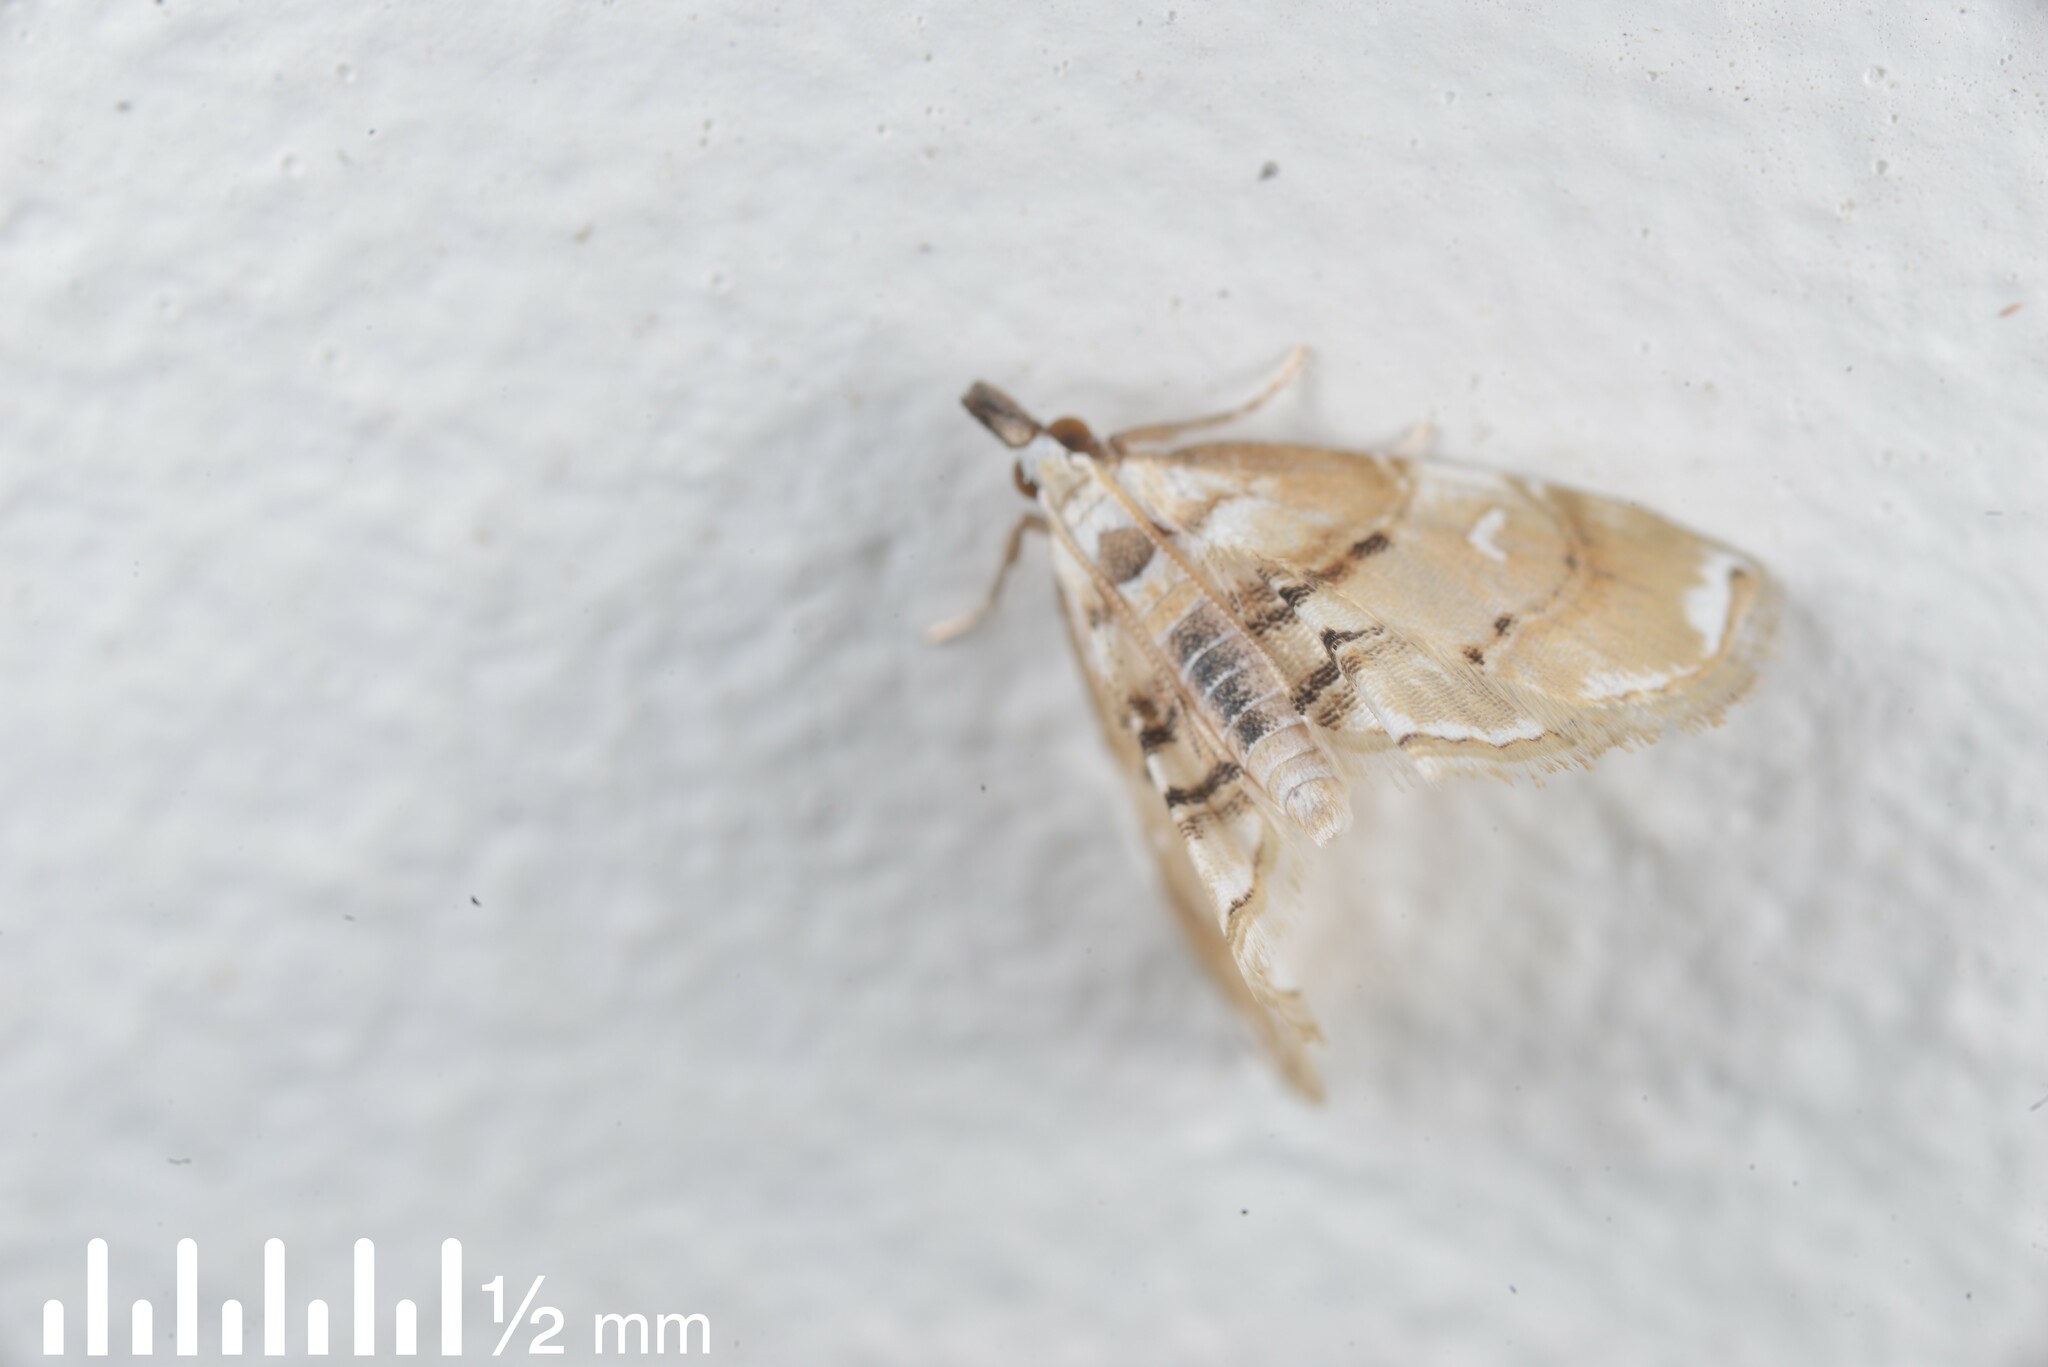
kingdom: Animalia
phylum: Arthropoda
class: Insecta
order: Lepidoptera
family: Crambidae
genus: Trichophysetis
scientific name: Trichophysetis
